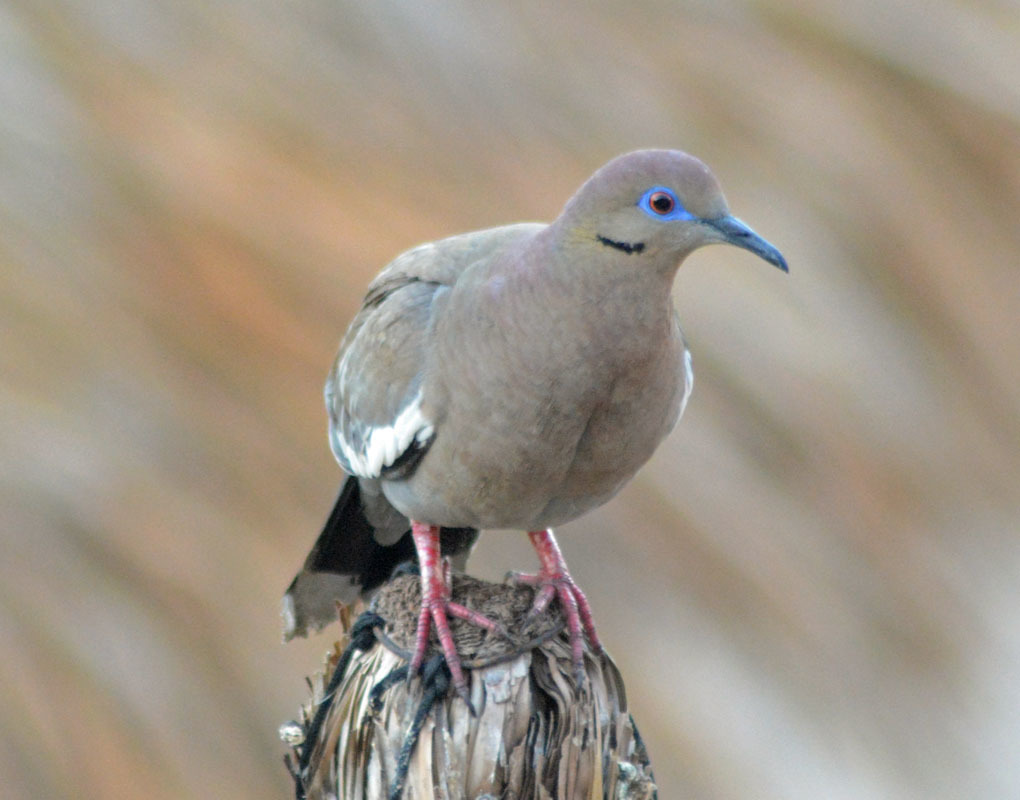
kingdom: Animalia
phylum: Chordata
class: Aves
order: Columbiformes
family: Columbidae
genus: Zenaida
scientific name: Zenaida asiatica
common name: White-winged dove
